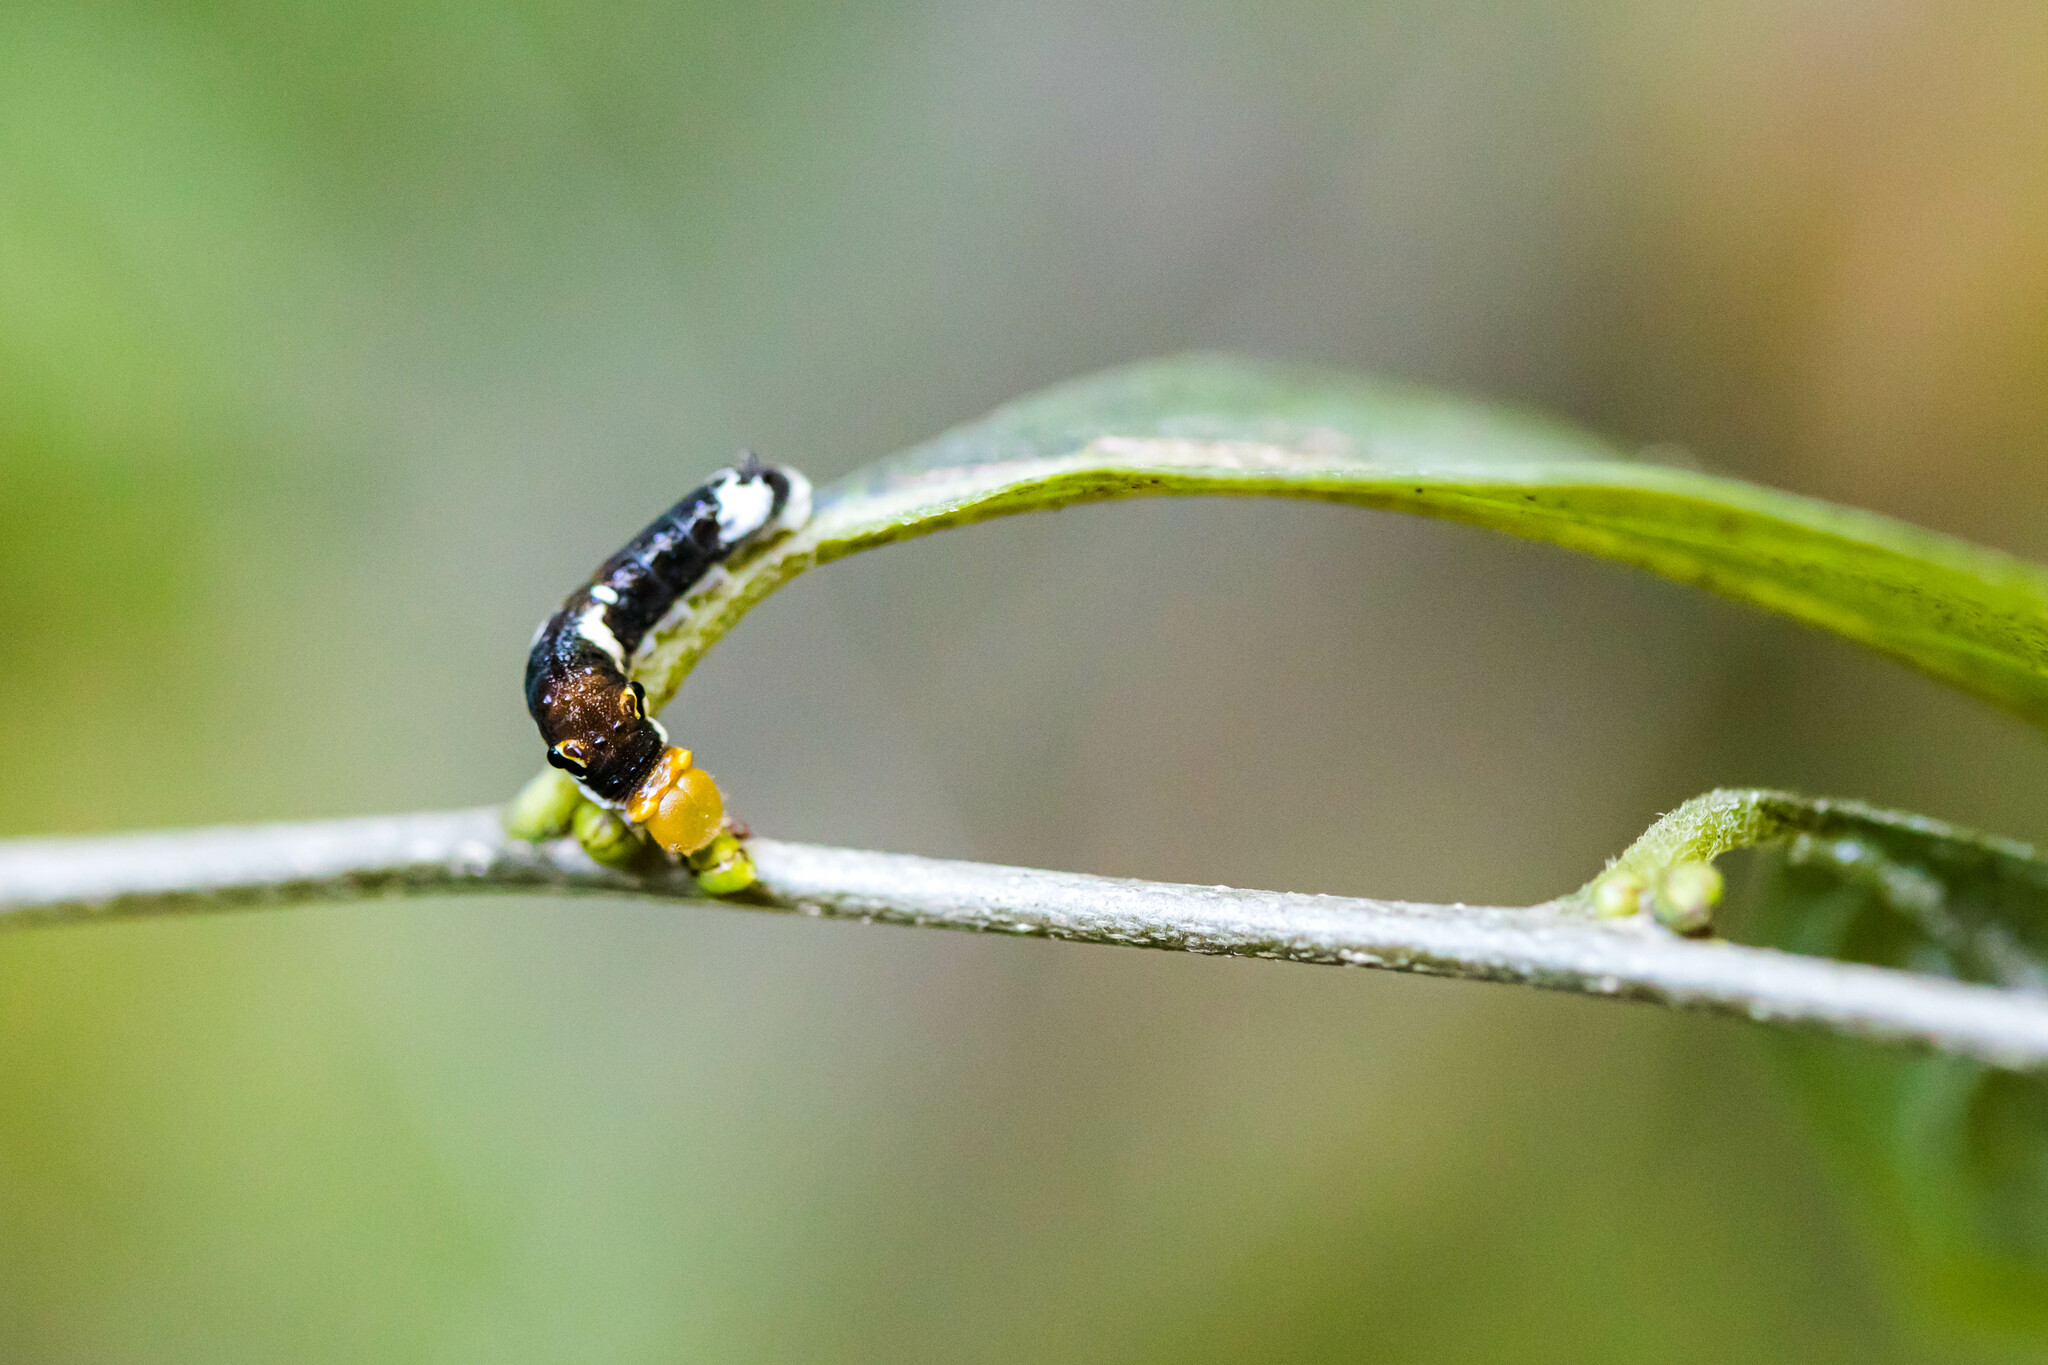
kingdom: Animalia
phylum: Arthropoda
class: Insecta
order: Lepidoptera
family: Papilionidae
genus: Papilio
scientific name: Papilio troilus
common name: Spicebush swallowtail
